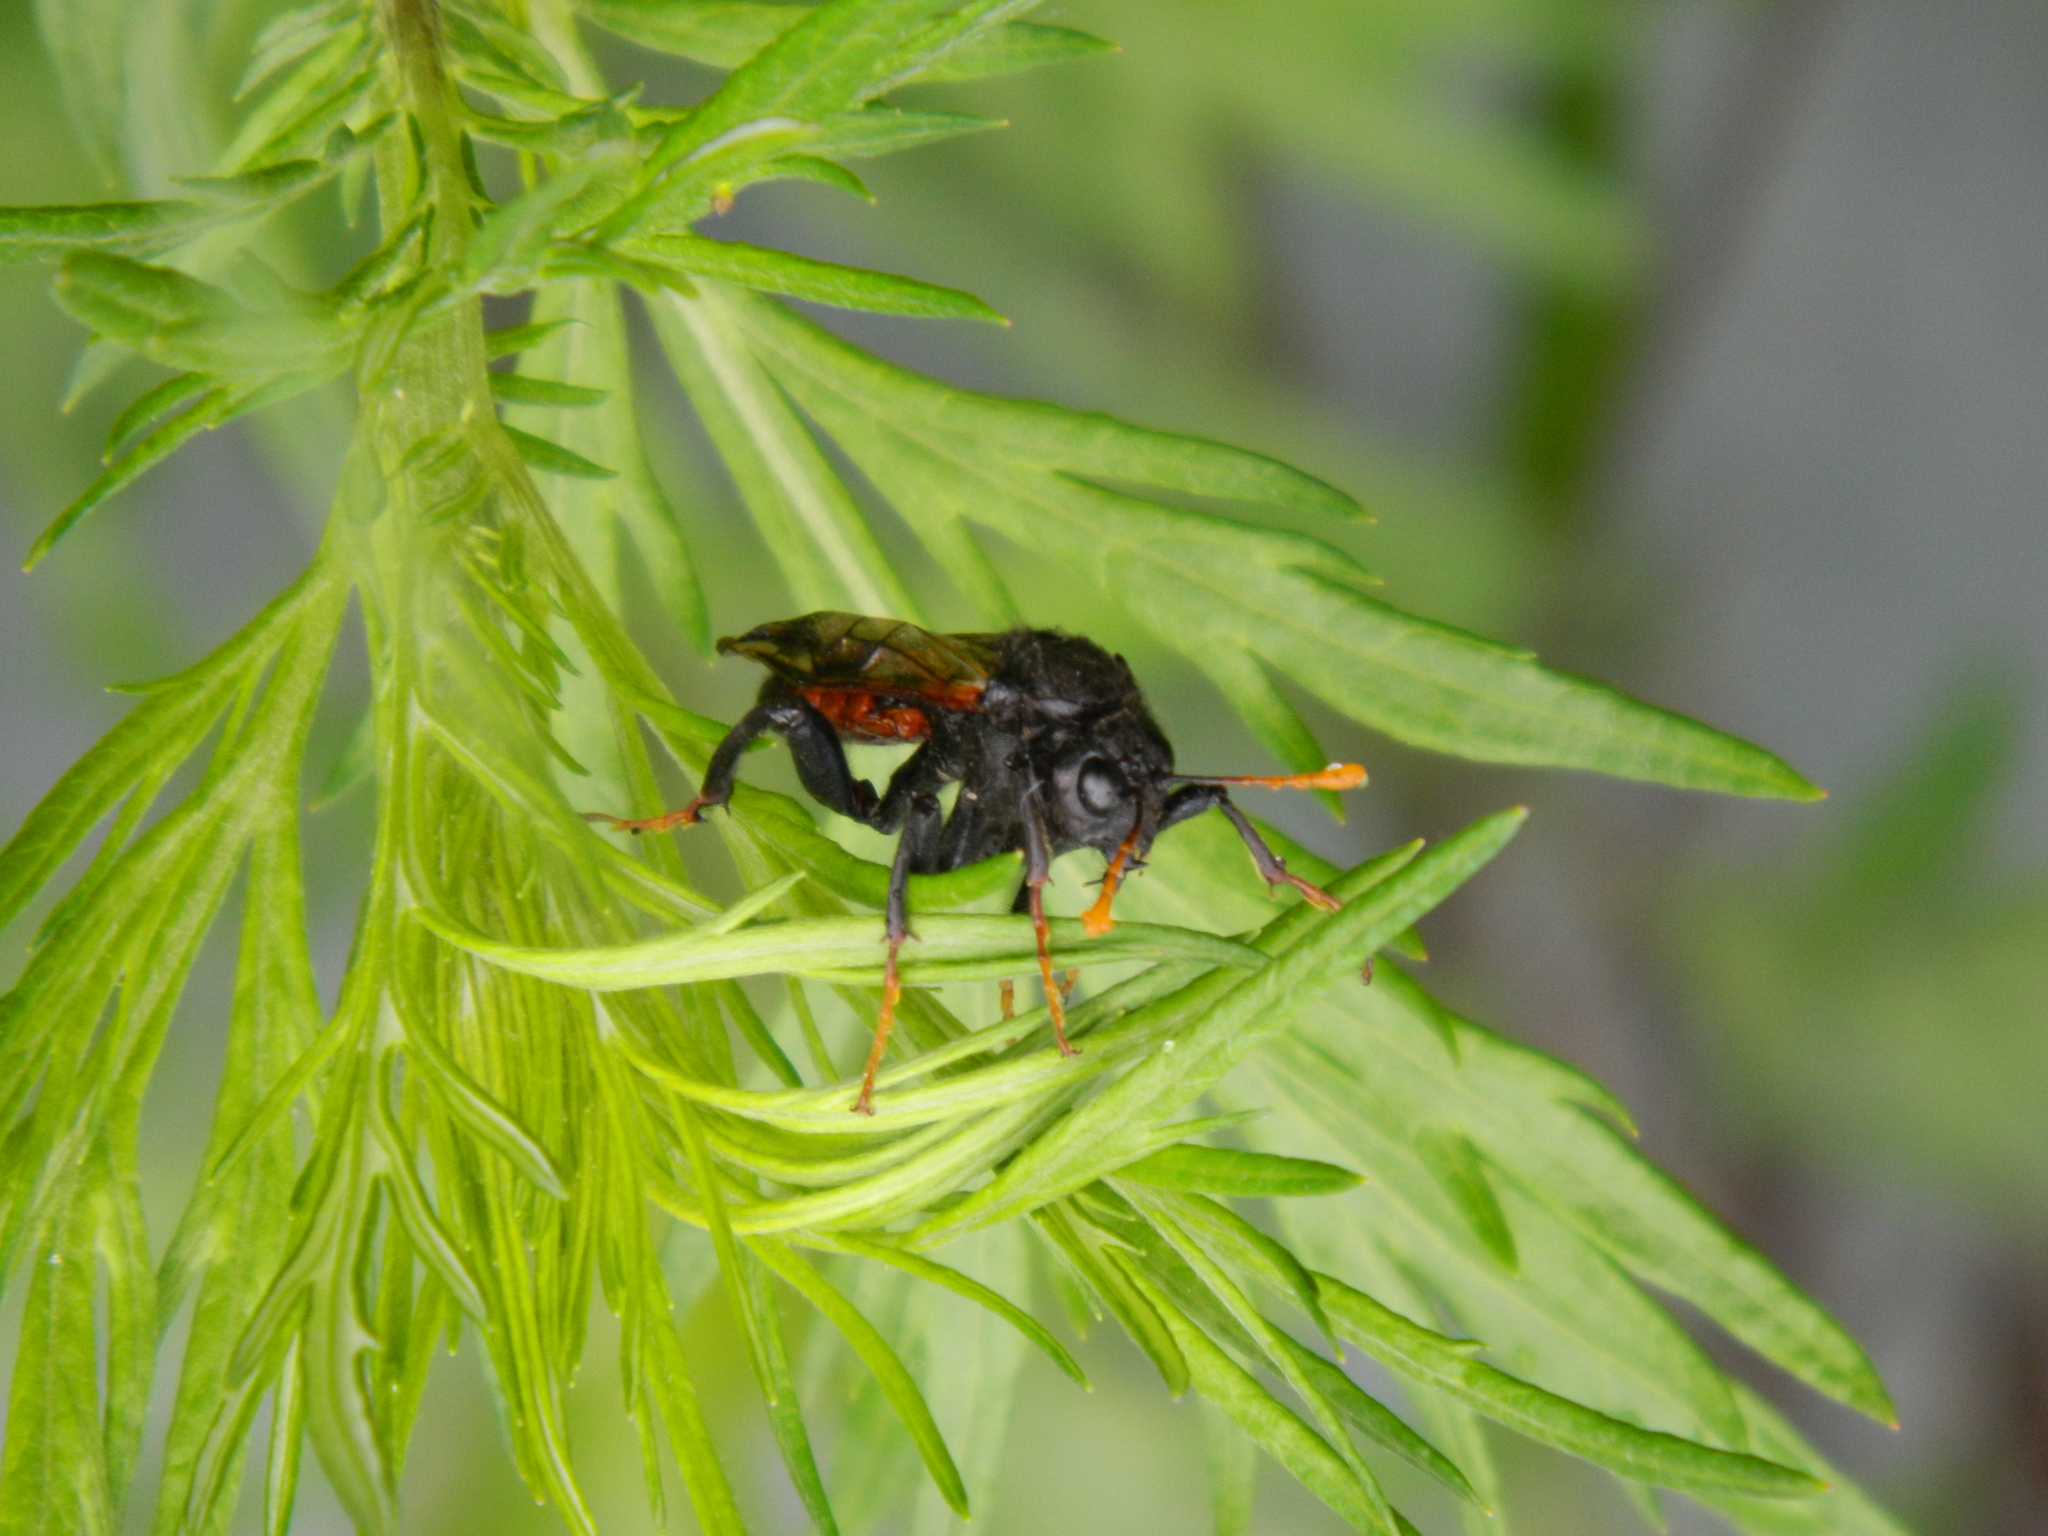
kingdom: Animalia
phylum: Arthropoda
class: Insecta
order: Hymenoptera
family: Cimbicidae
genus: Cimbex
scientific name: Cimbex femoratus
